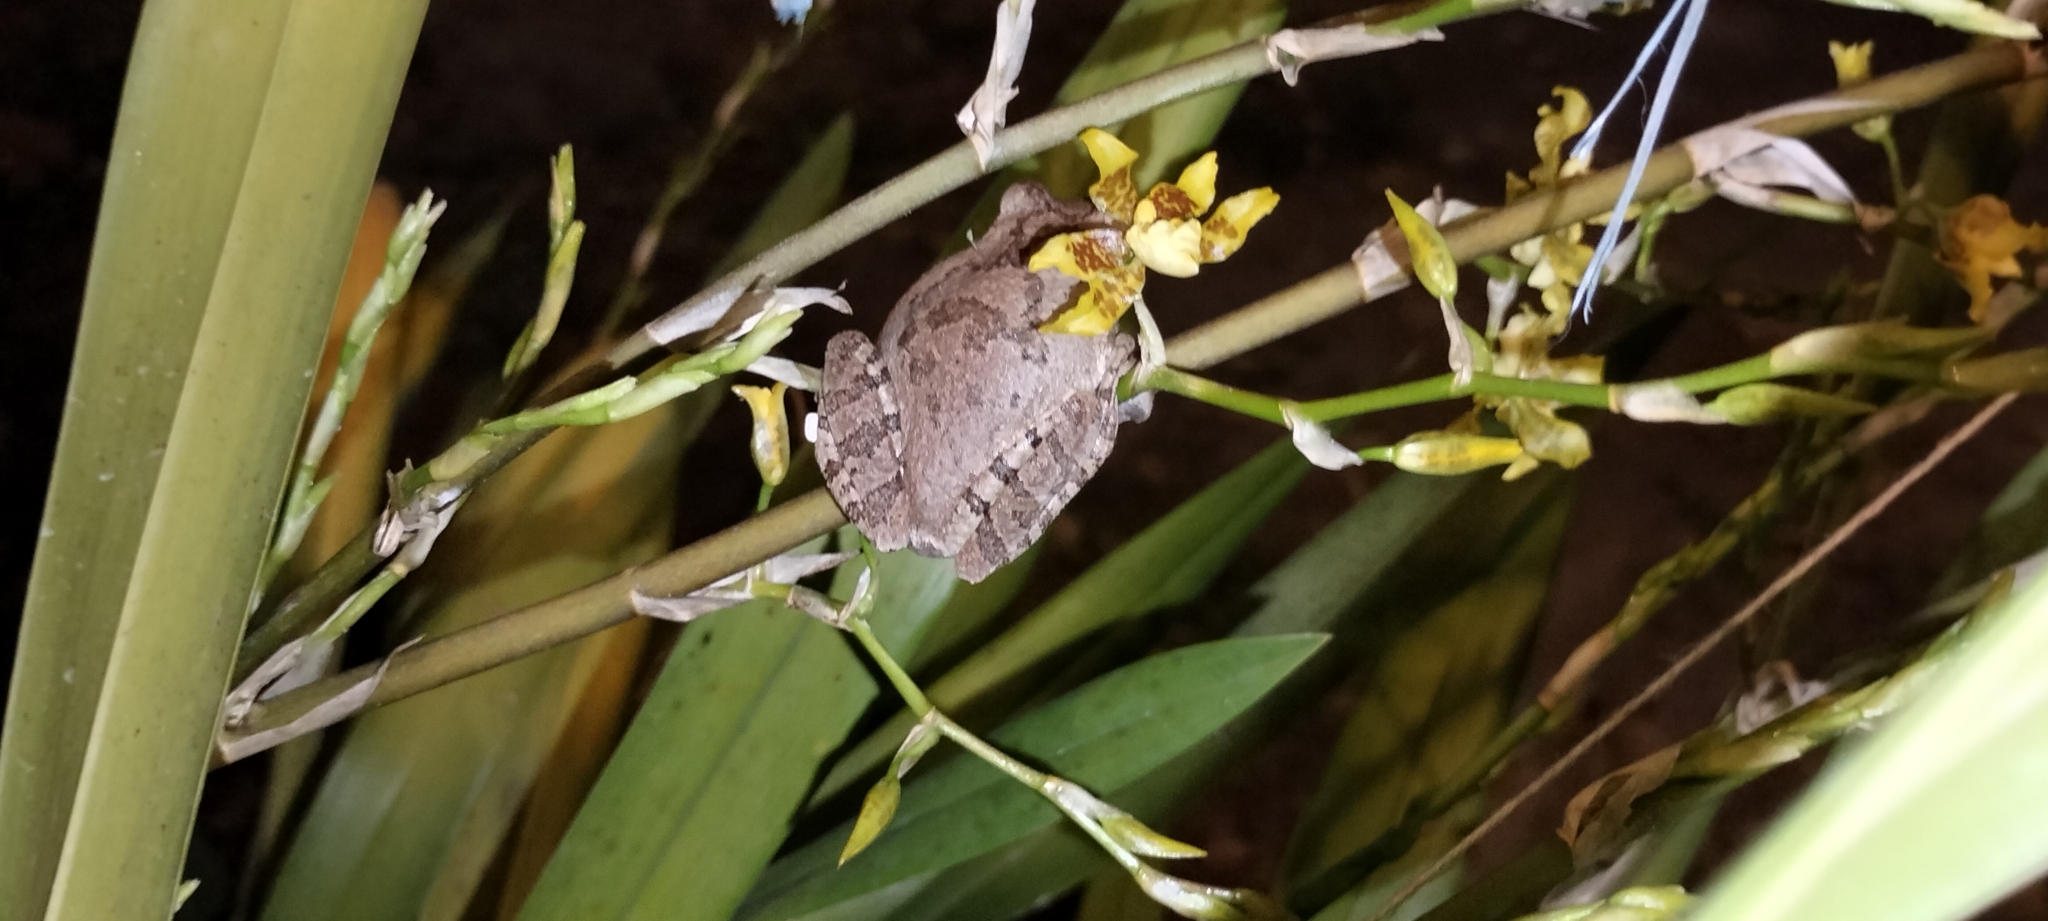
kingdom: Animalia
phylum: Chordata
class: Amphibia
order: Anura
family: Hylidae
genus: Smilisca
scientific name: Smilisca baudinii
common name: Mexican smilisca
